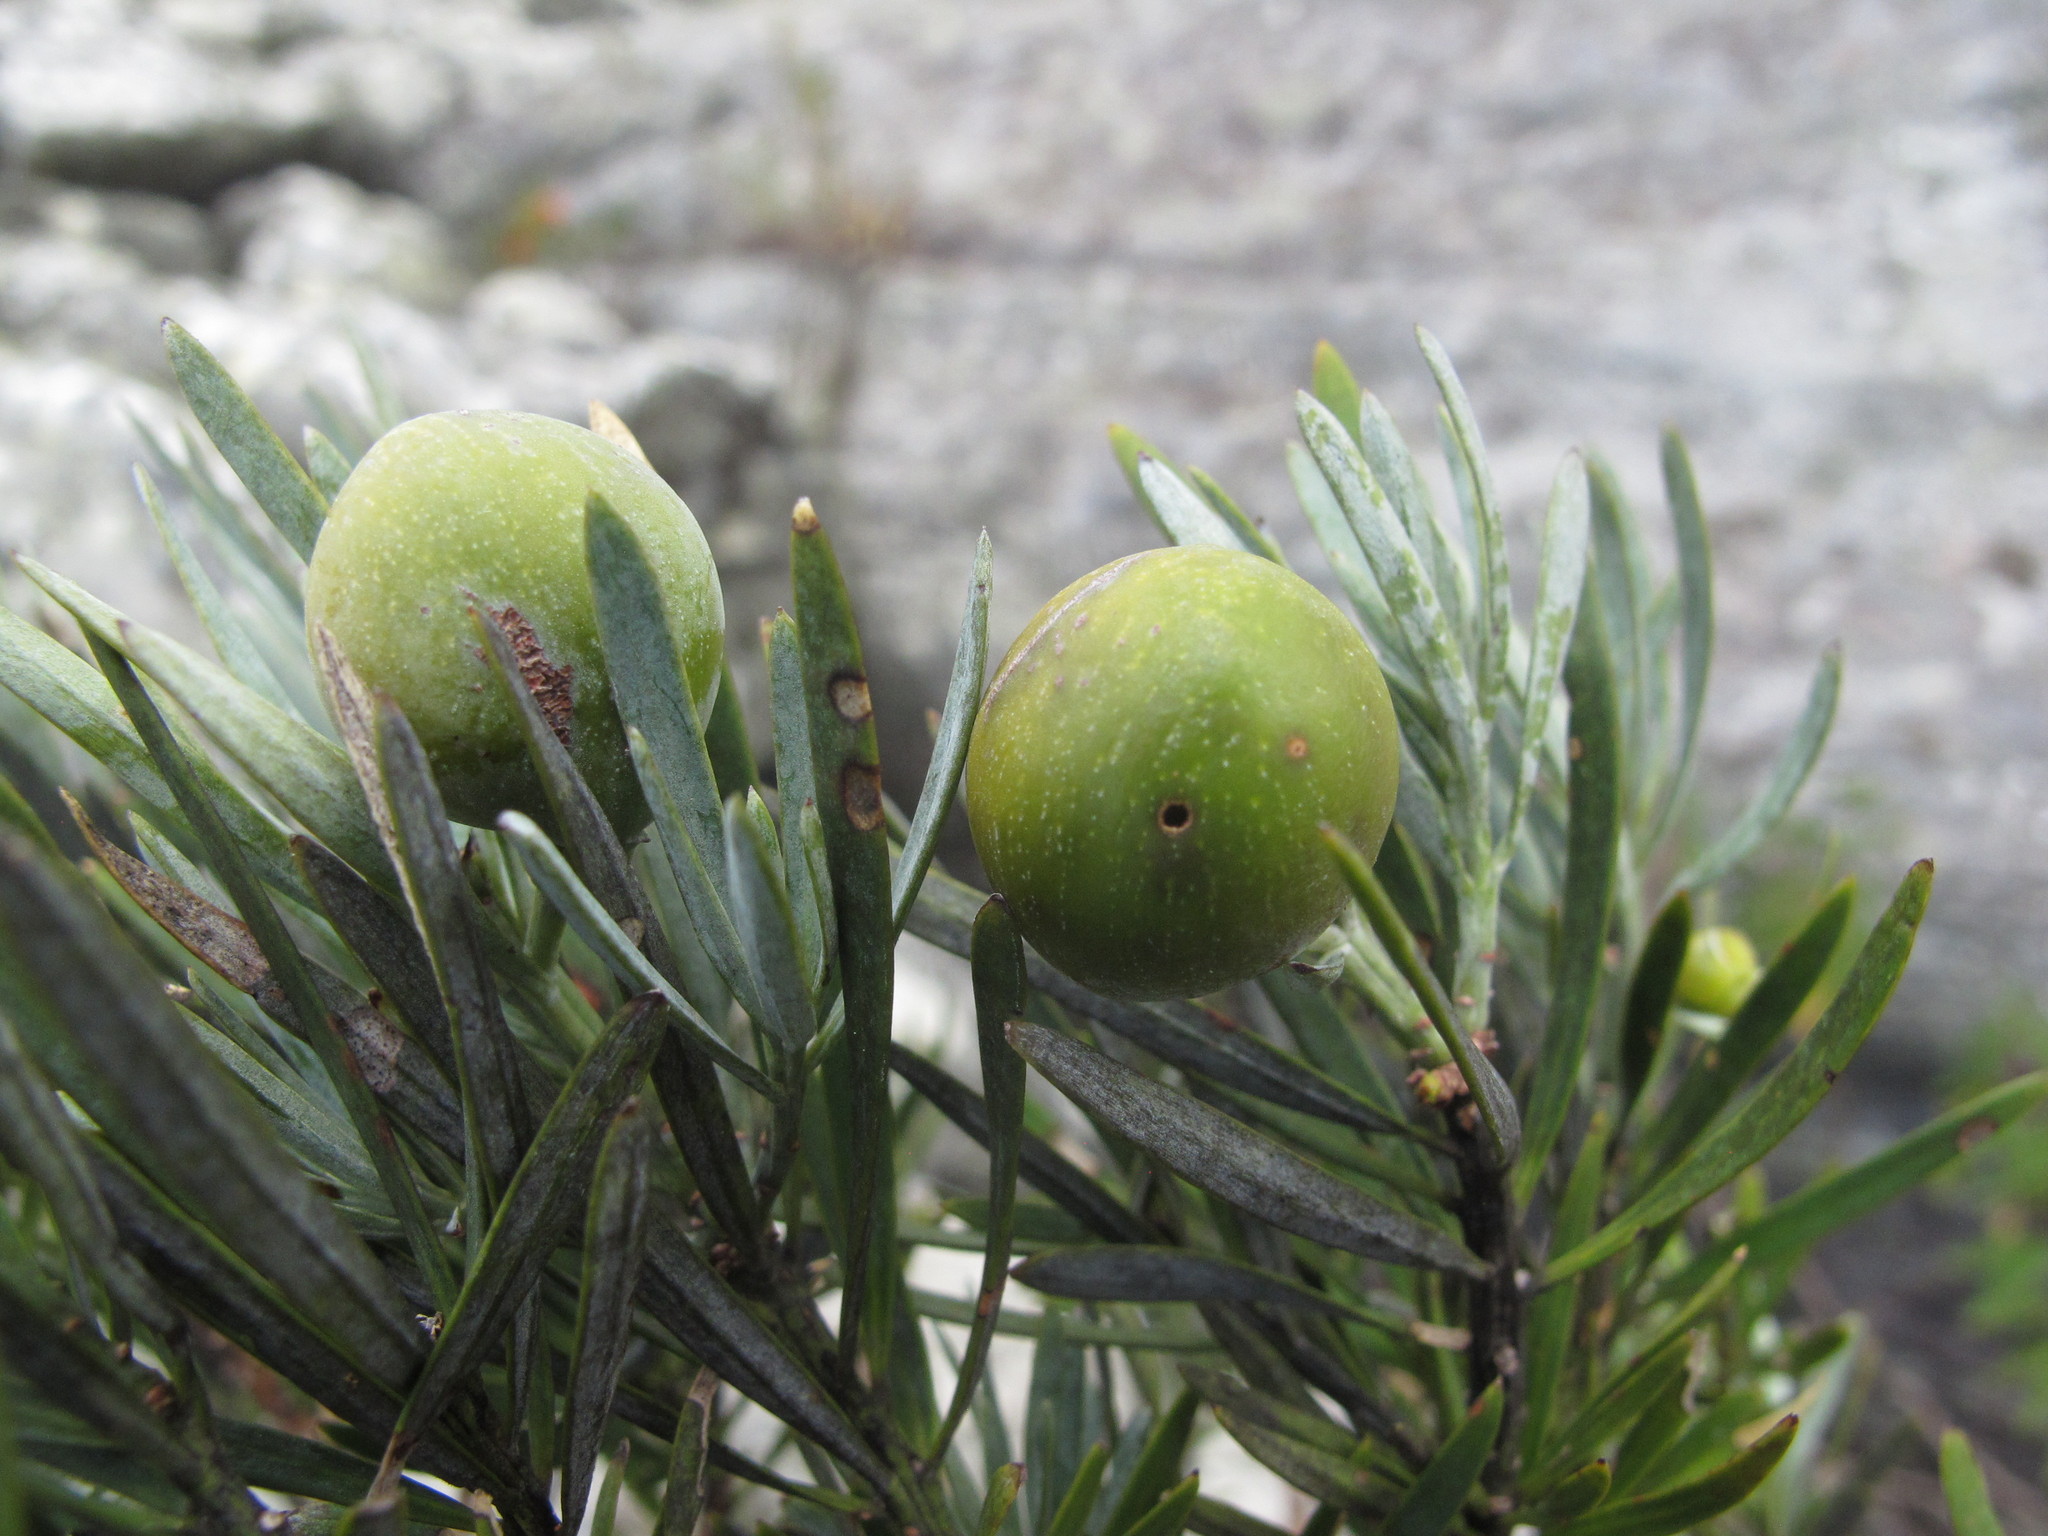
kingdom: Plantae
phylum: Tracheophyta
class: Pinopsida
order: Pinales
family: Podocarpaceae
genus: Podocarpus
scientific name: Podocarpus capuronii
